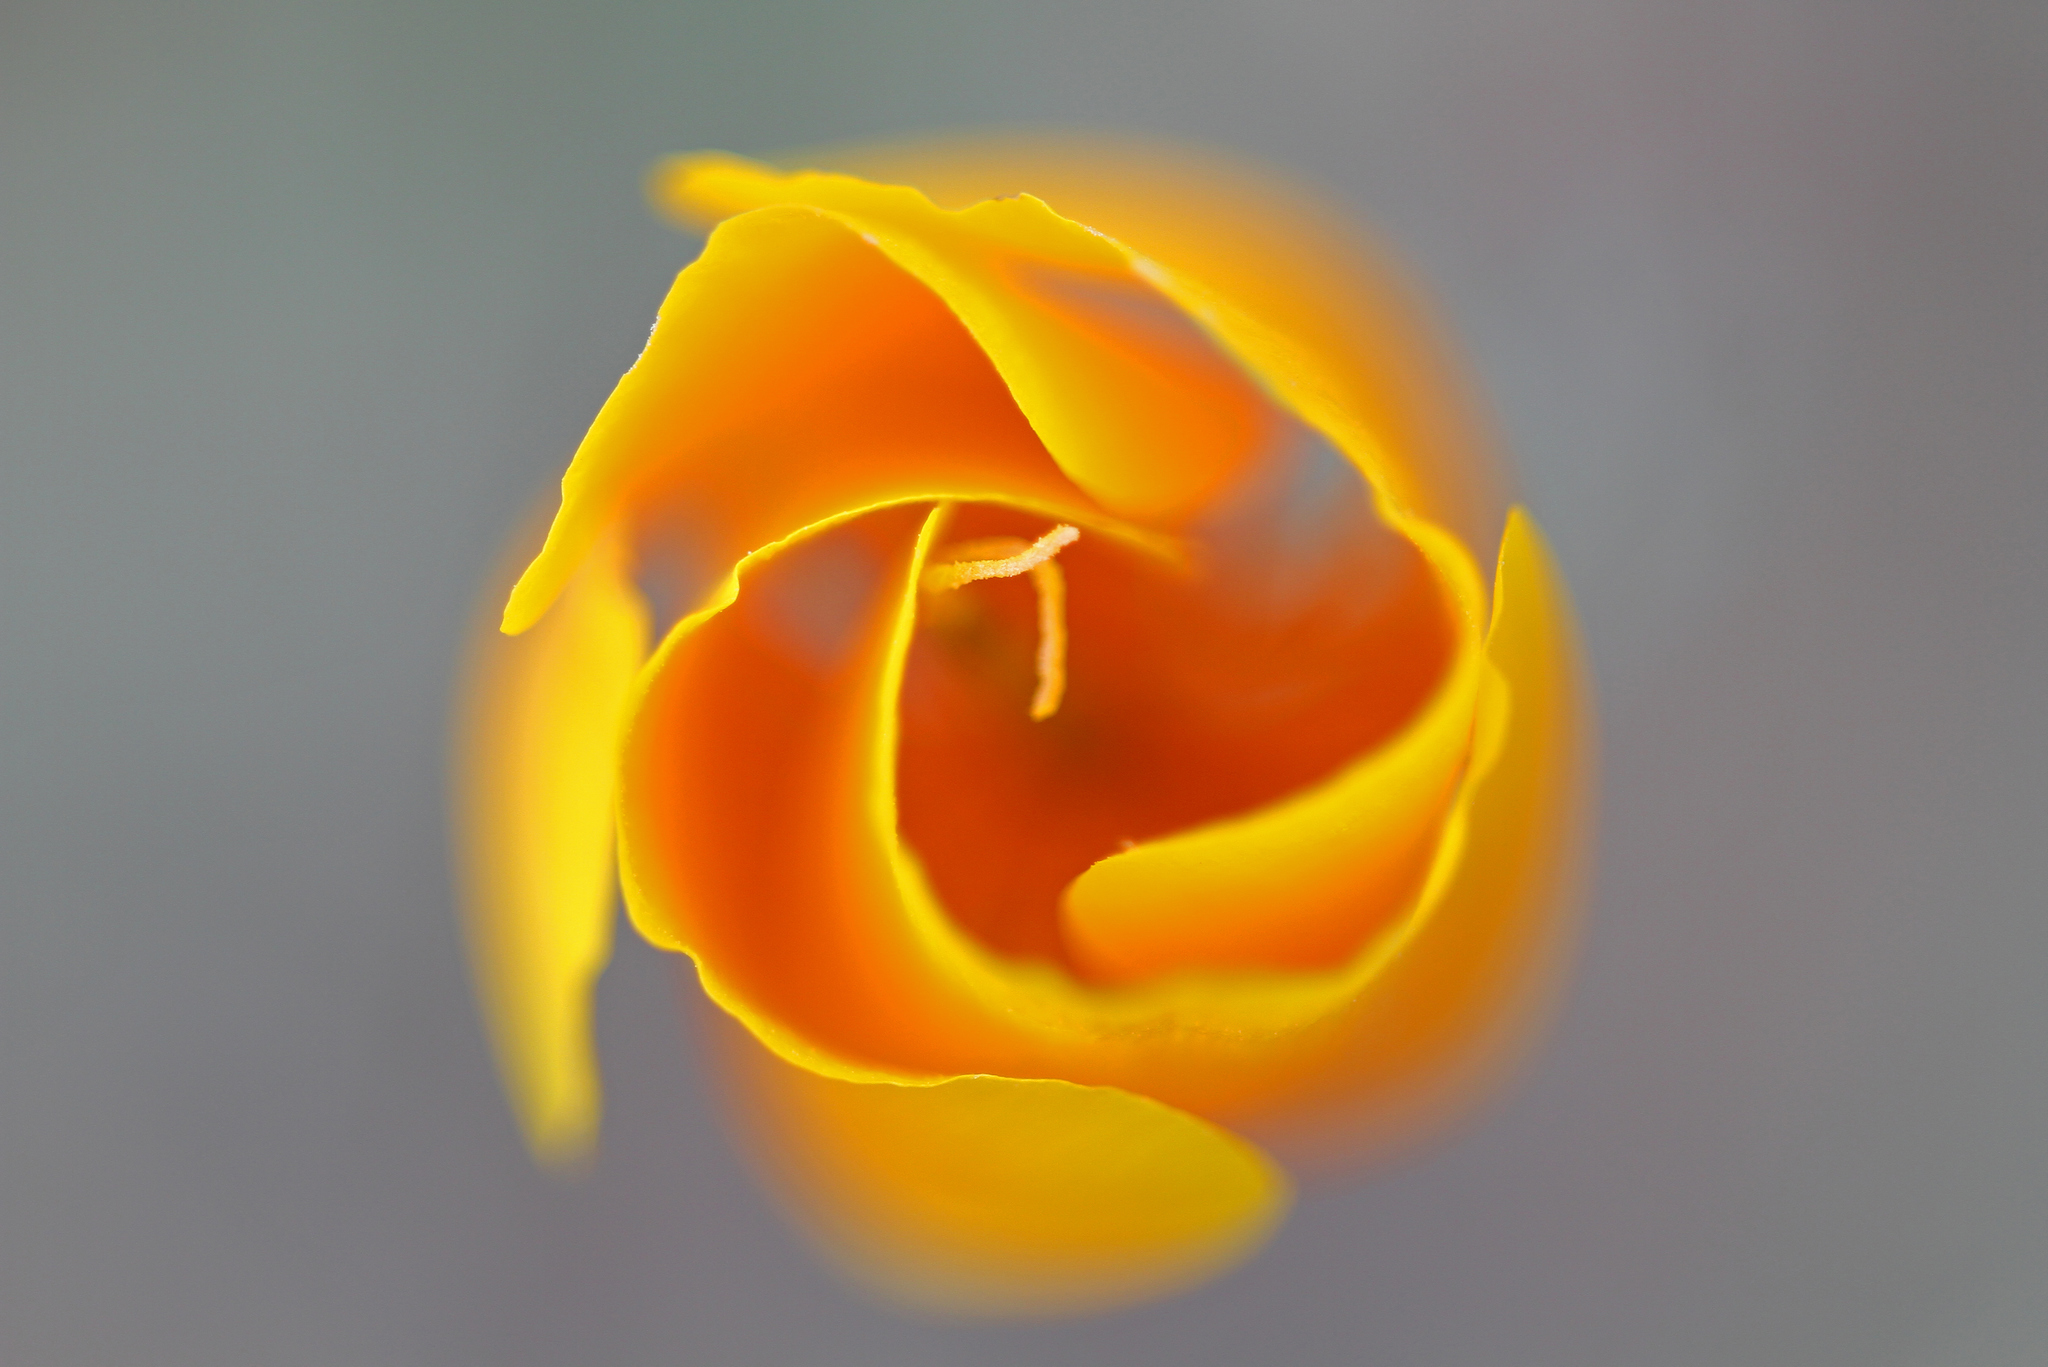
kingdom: Plantae
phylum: Tracheophyta
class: Magnoliopsida
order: Ranunculales
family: Papaveraceae
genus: Eschscholzia
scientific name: Eschscholzia californica
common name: California poppy
